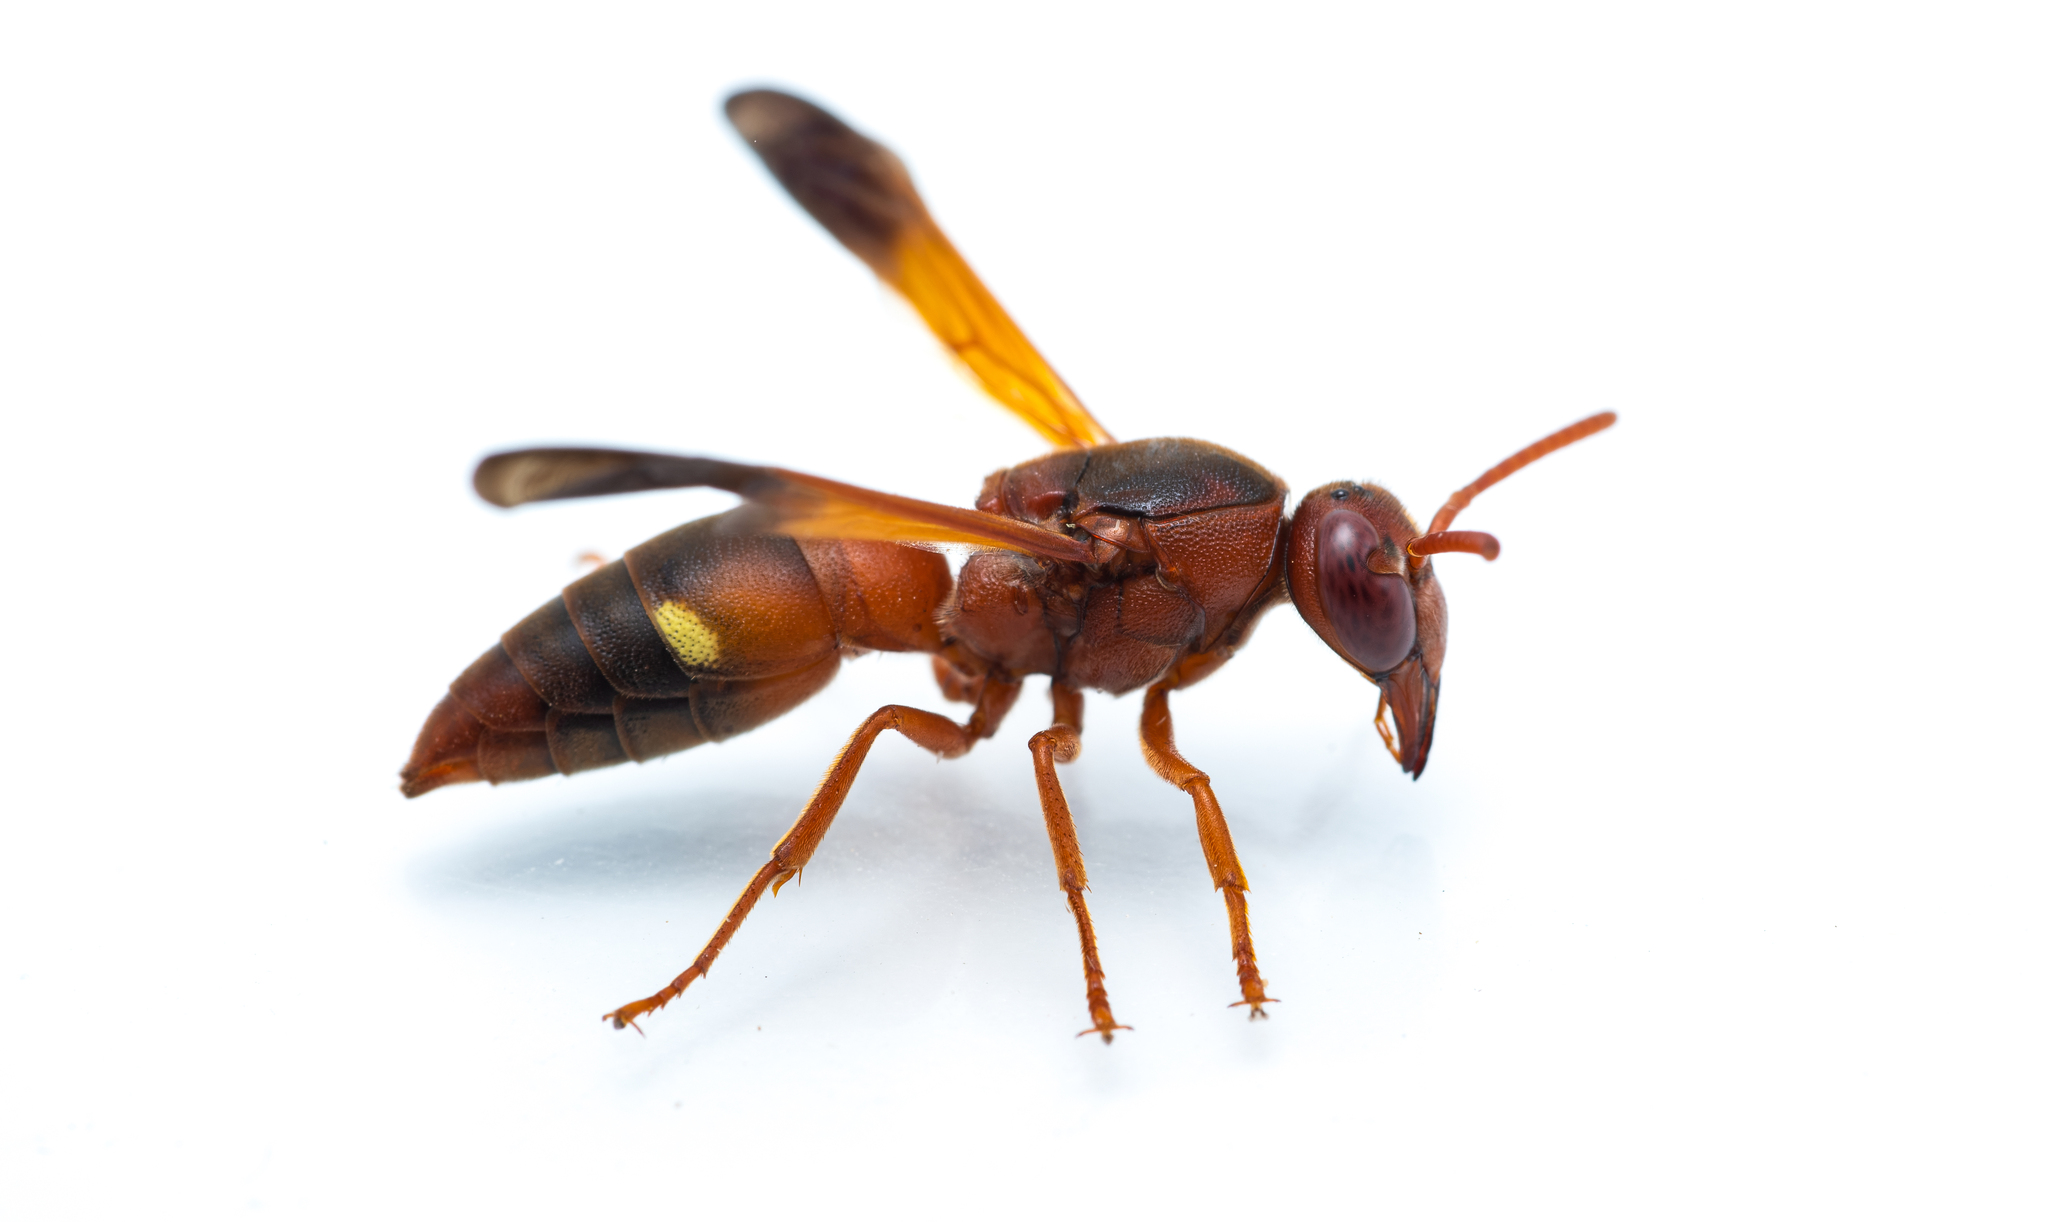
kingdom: Animalia
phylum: Arthropoda
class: Insecta
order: Hymenoptera
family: Eumenidae
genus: Rhynchium
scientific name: Rhynchium oculatum
